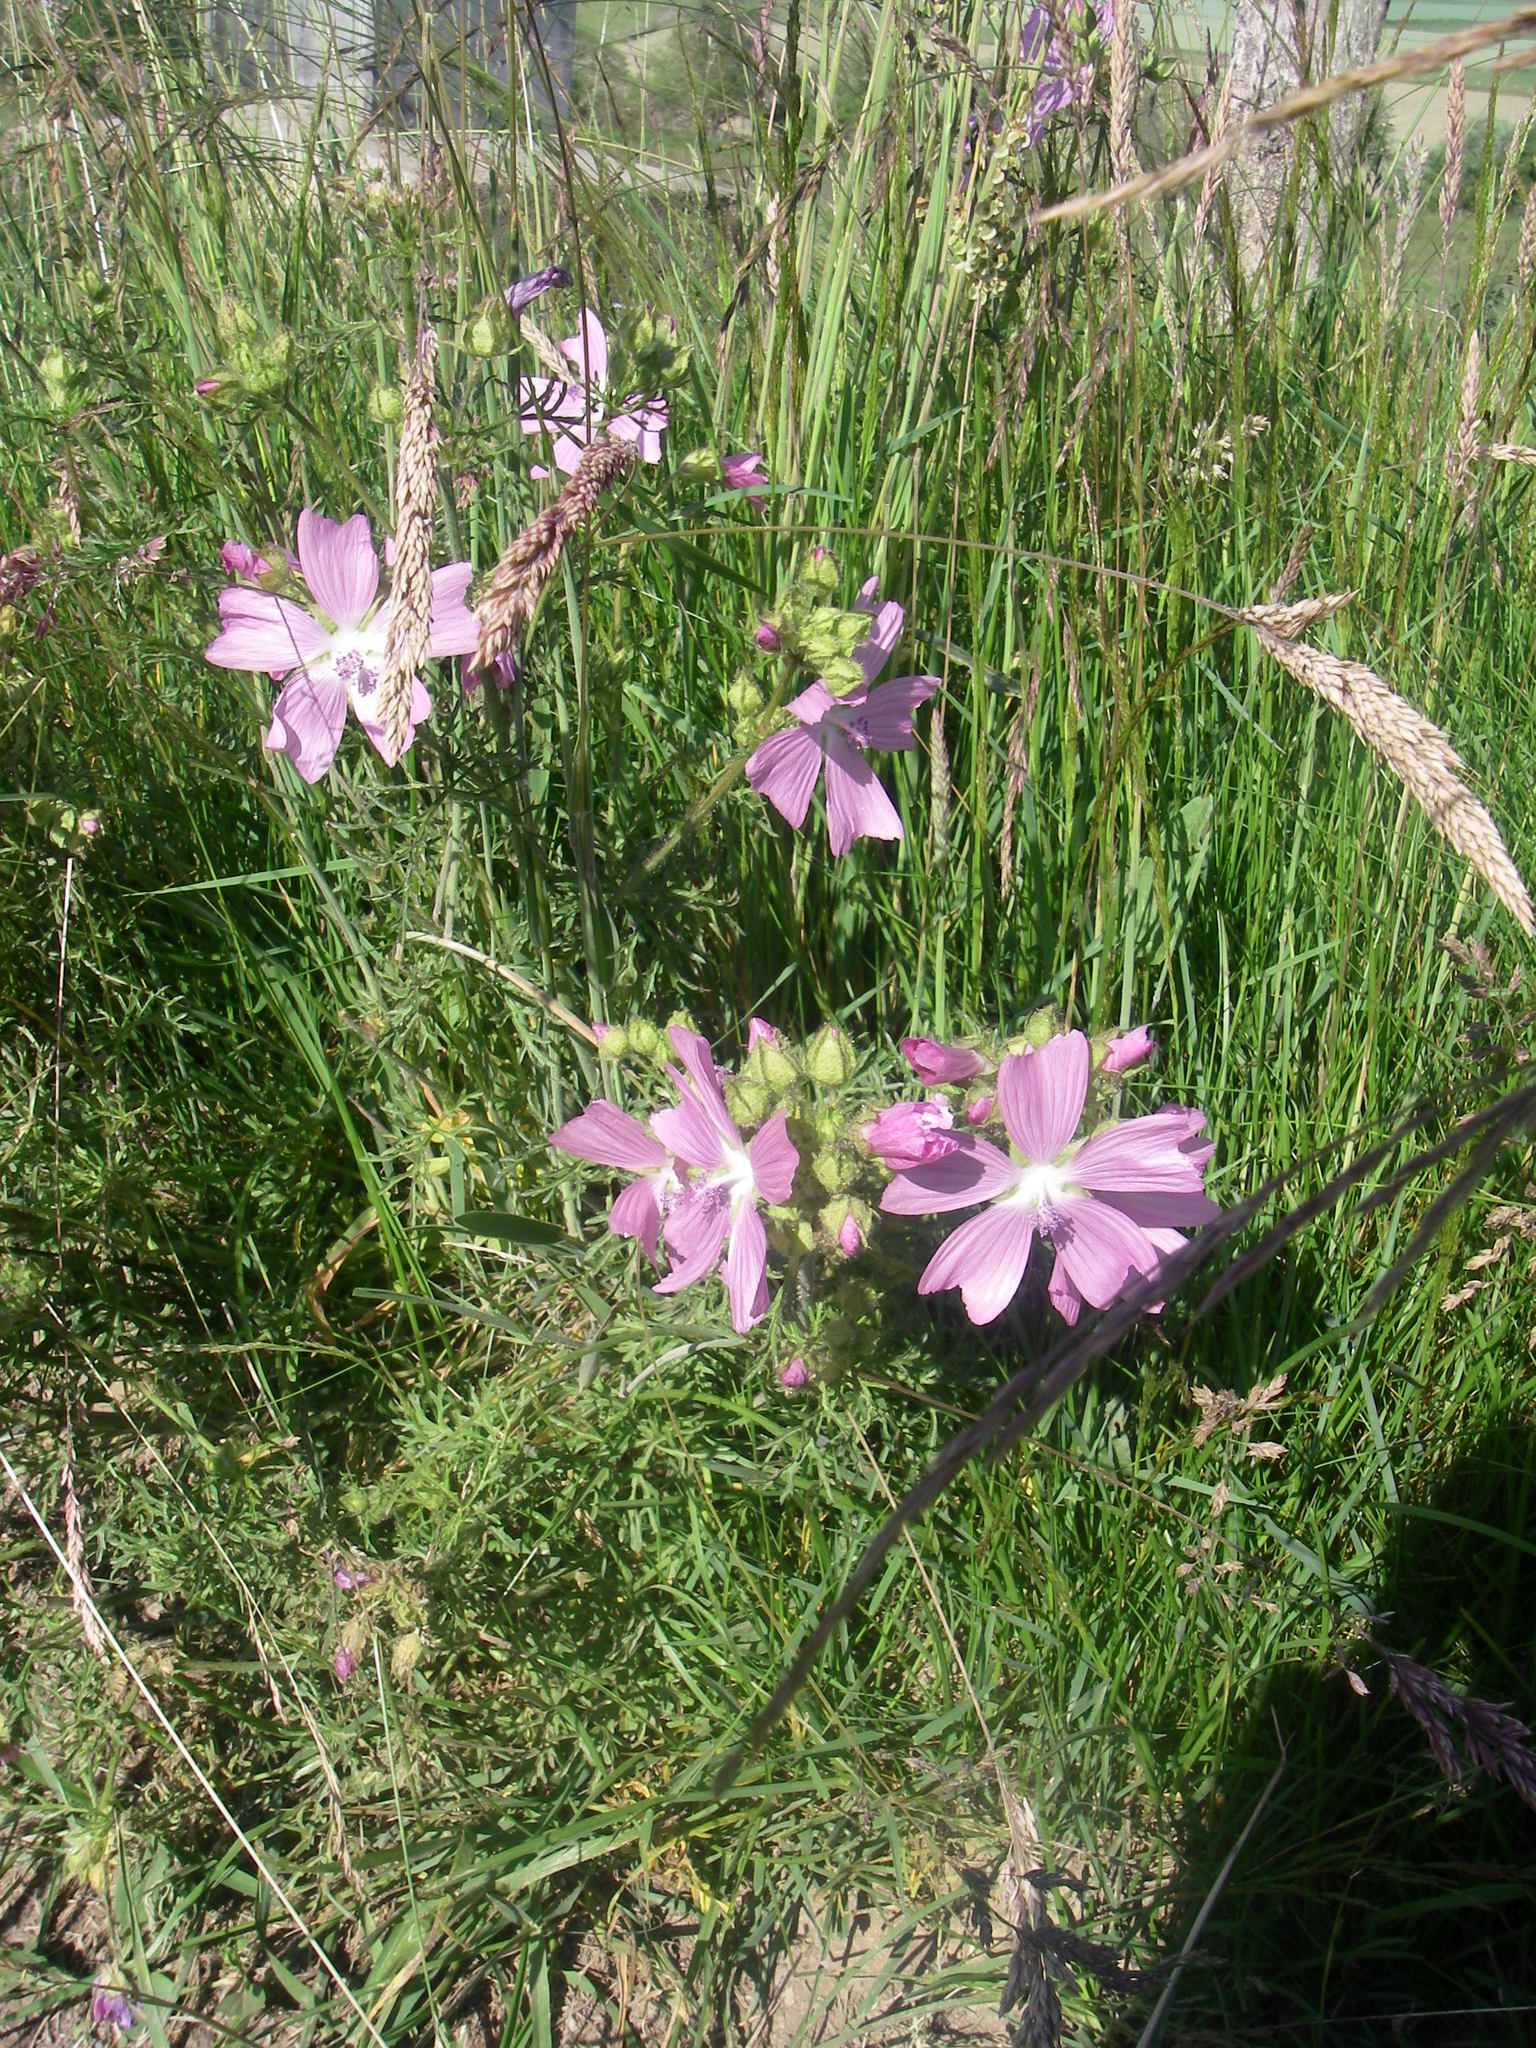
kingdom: Plantae
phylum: Tracheophyta
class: Magnoliopsida
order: Malvales
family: Malvaceae
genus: Malva
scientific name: Malva moschata
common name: Musk mallow
